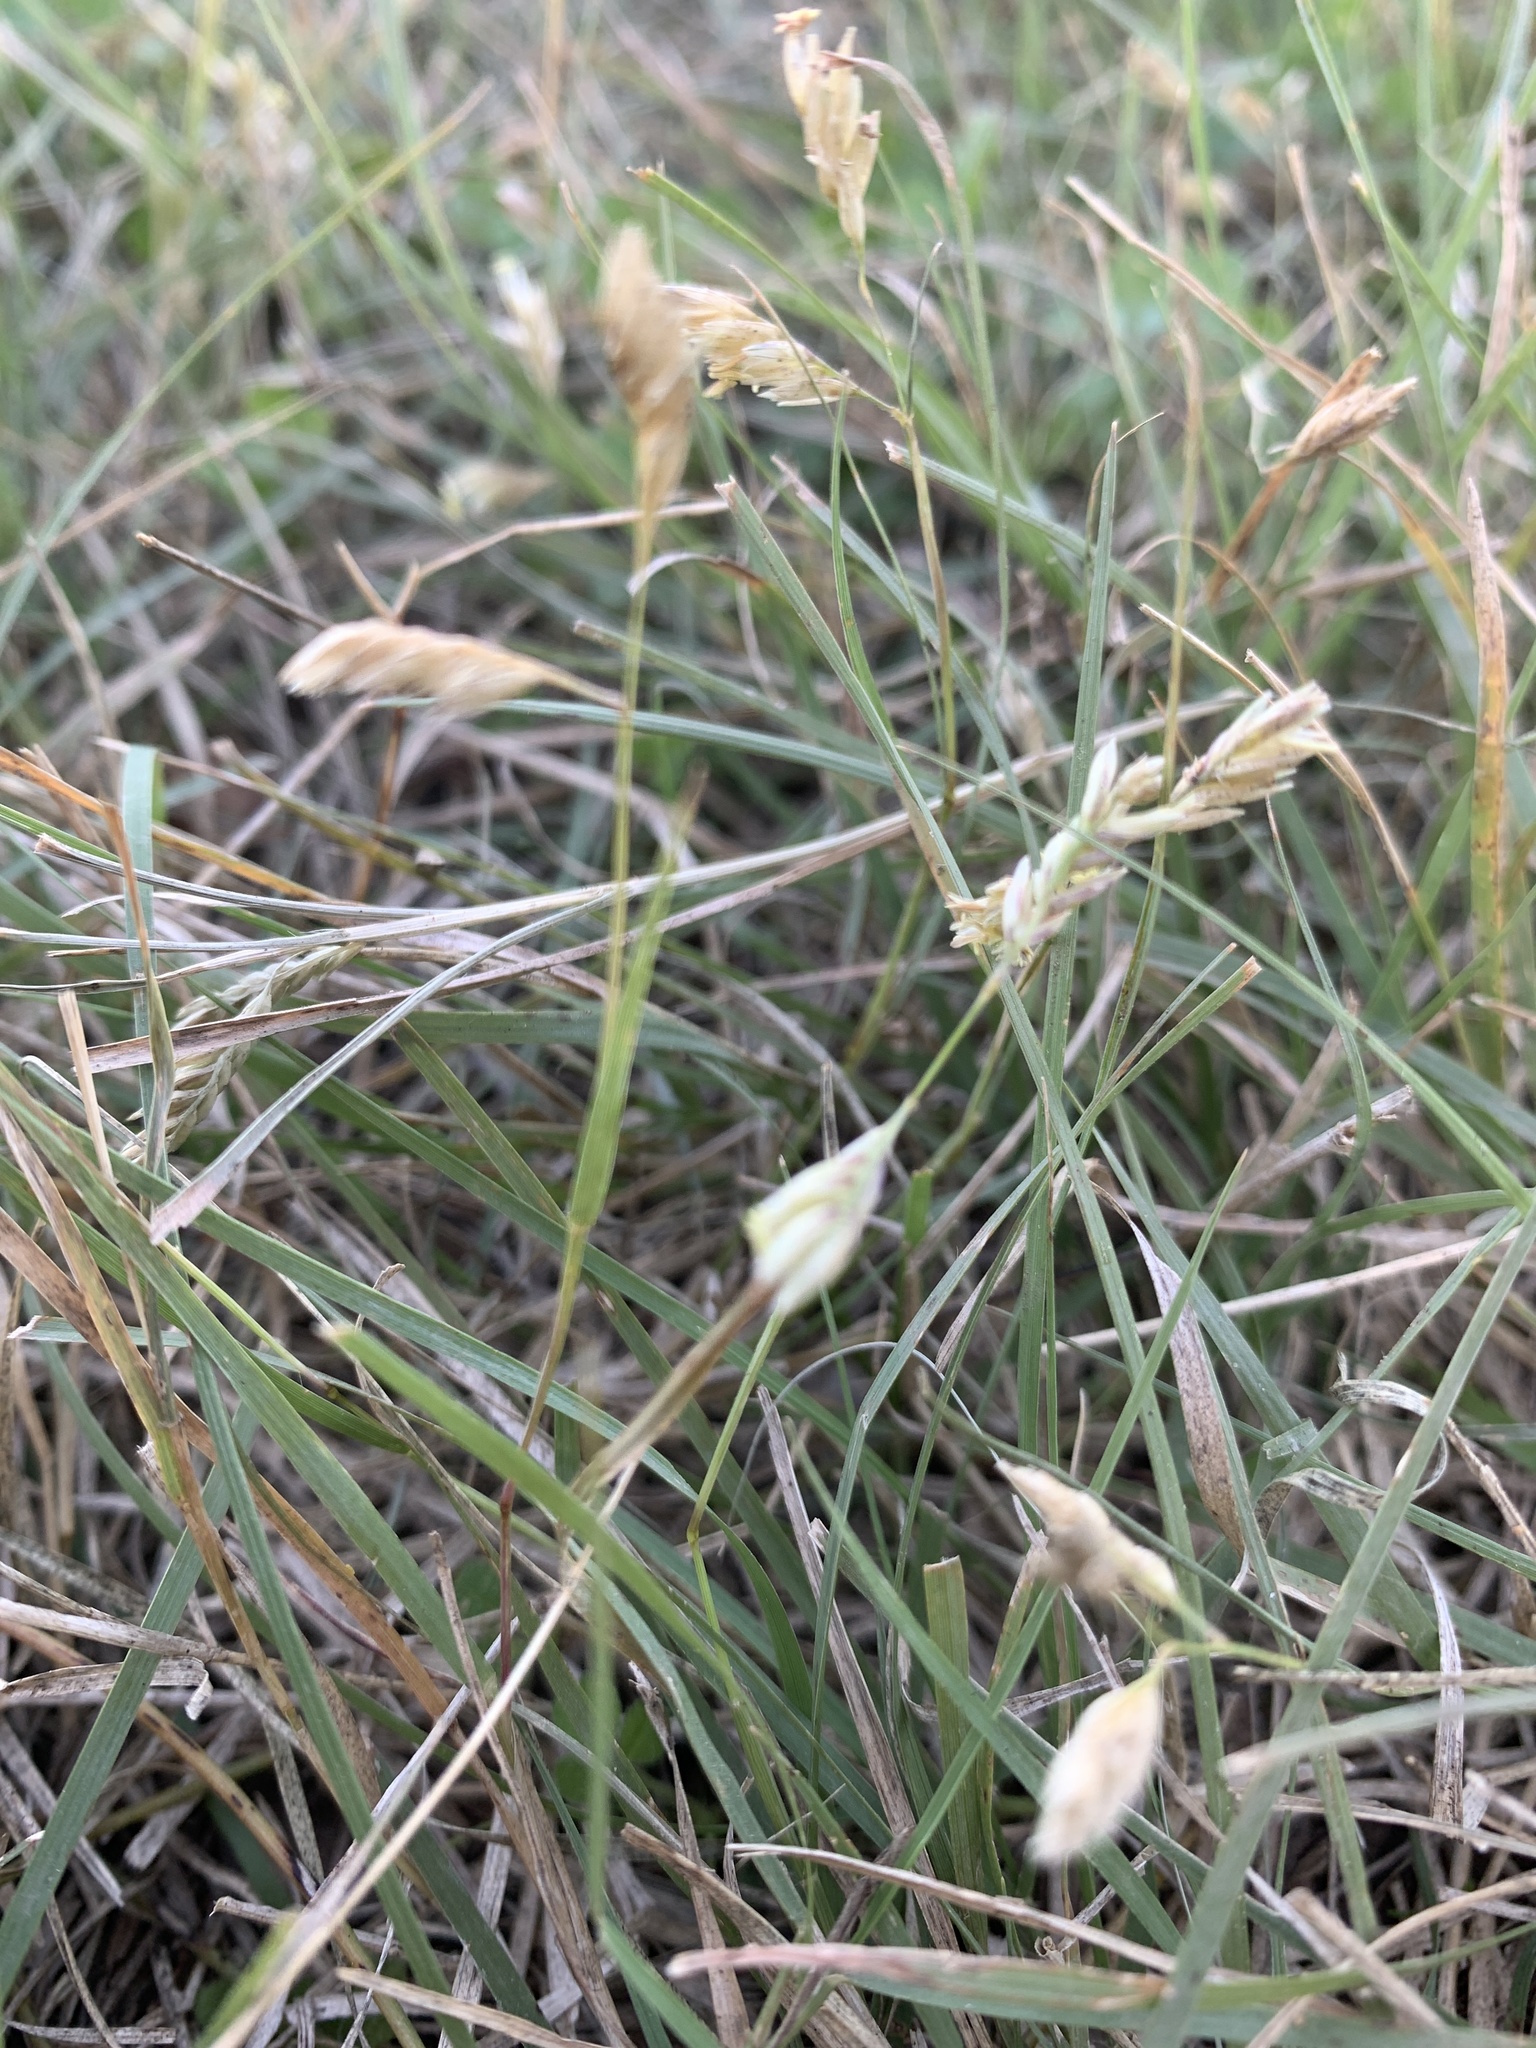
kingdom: Plantae
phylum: Tracheophyta
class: Liliopsida
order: Poales
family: Poaceae
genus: Bouteloua
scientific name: Bouteloua dactyloides
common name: Buffalo grass
